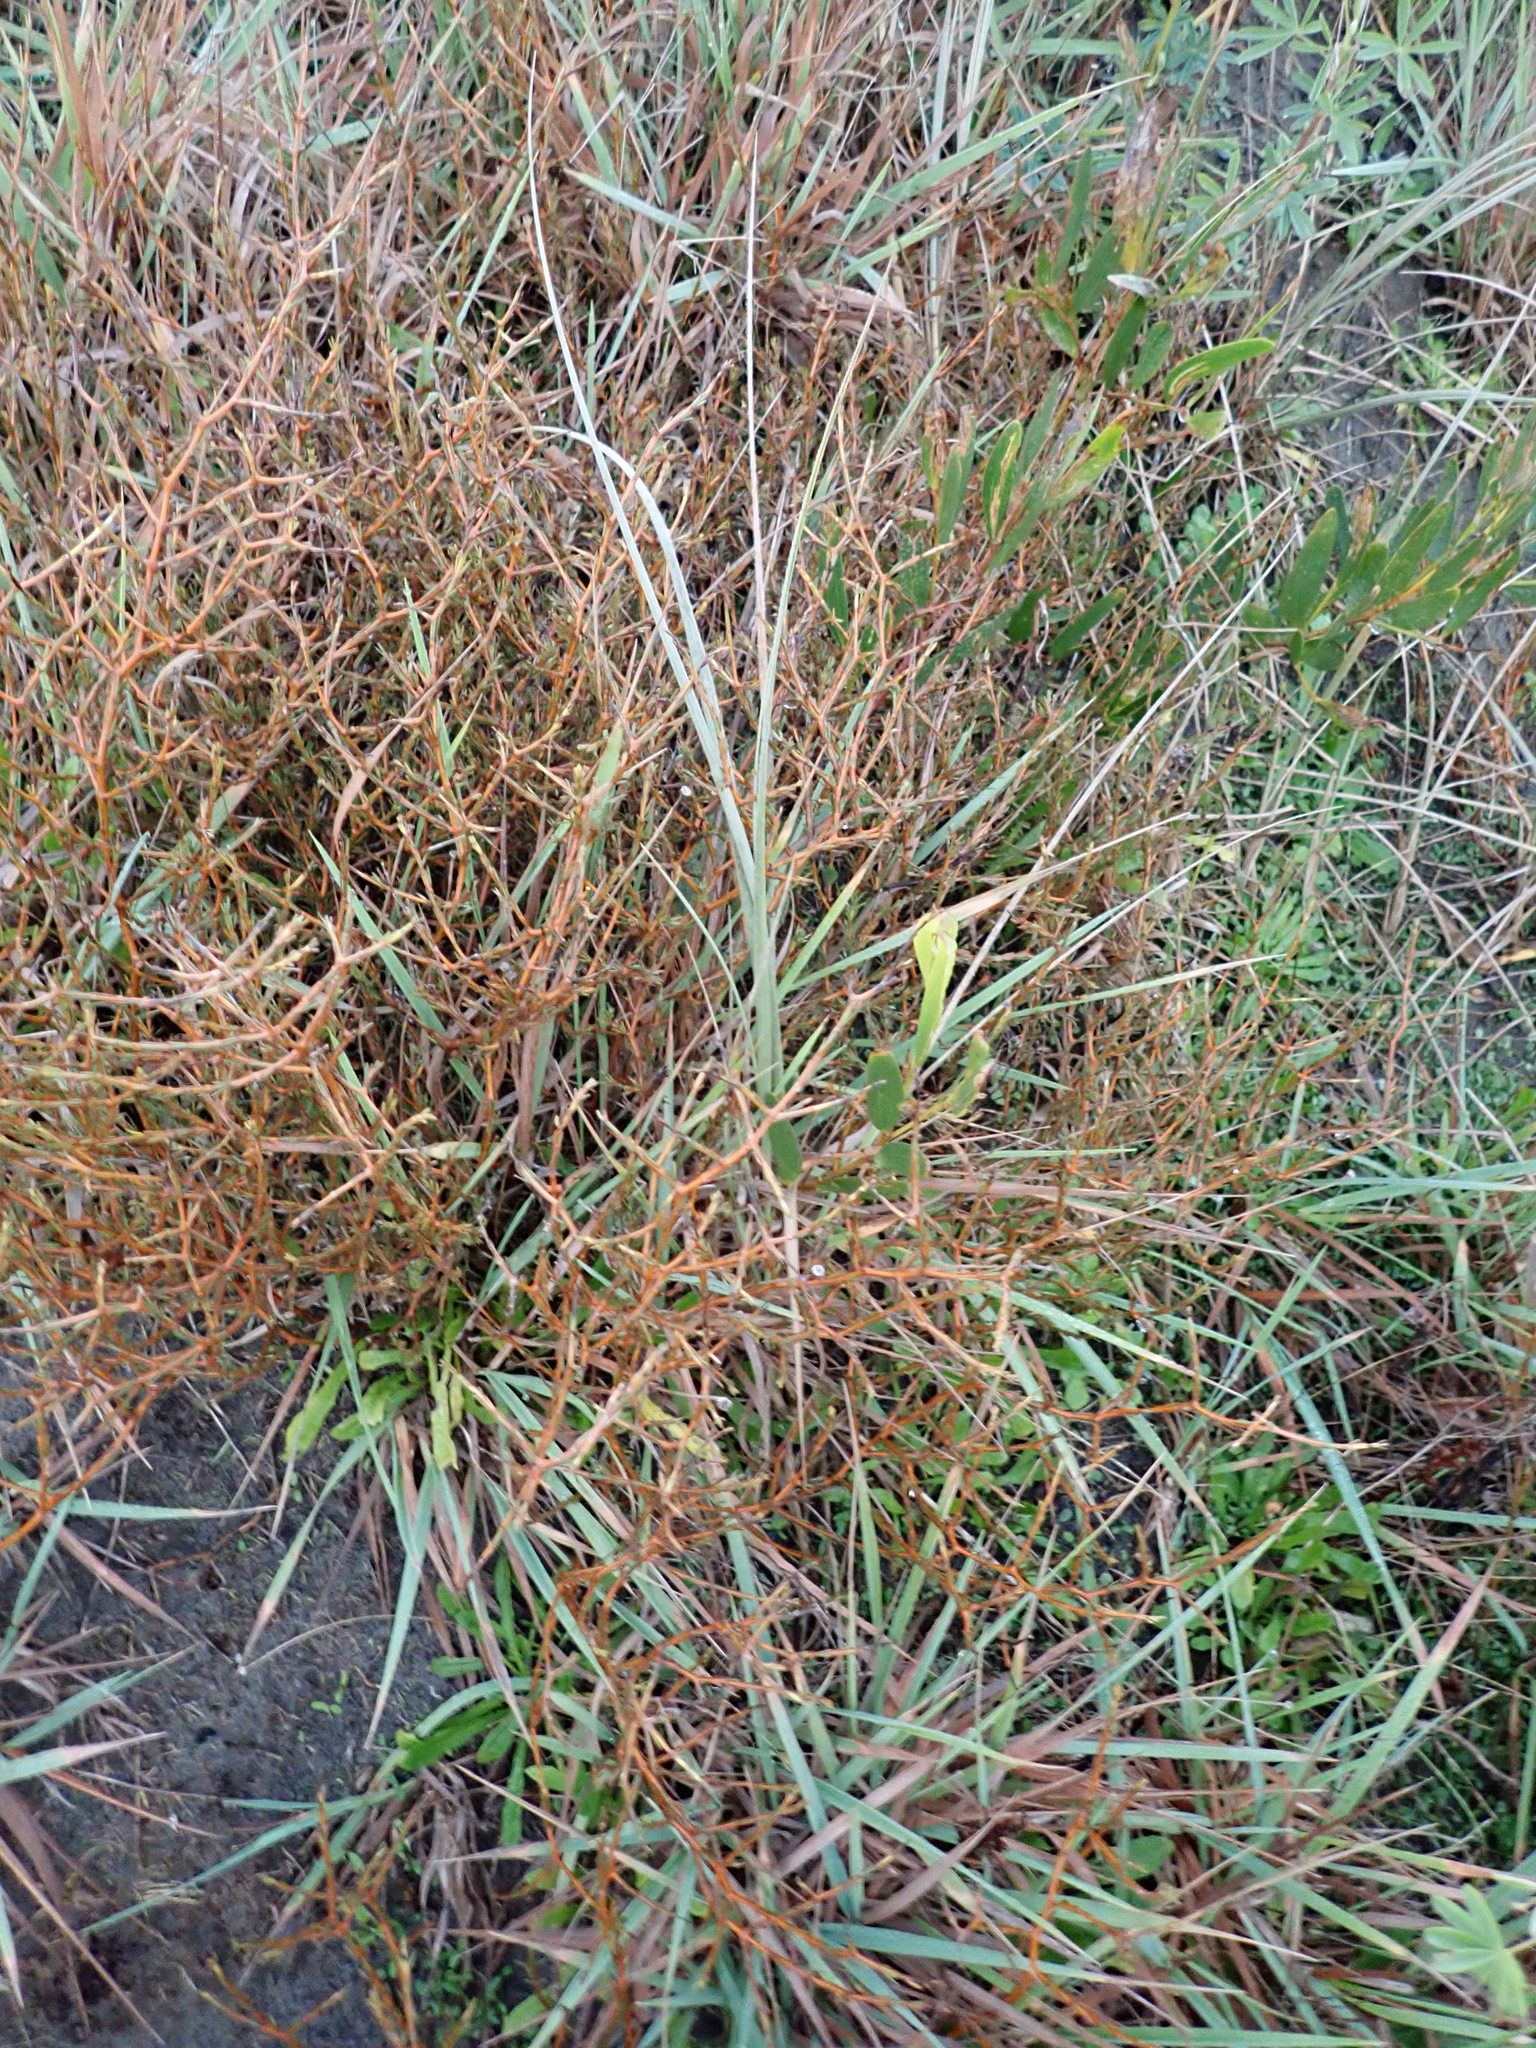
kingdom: Plantae
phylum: Tracheophyta
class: Magnoliopsida
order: Gentianales
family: Rubiaceae
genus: Coprosma
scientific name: Coprosma acerosa
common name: Sand coprosma
